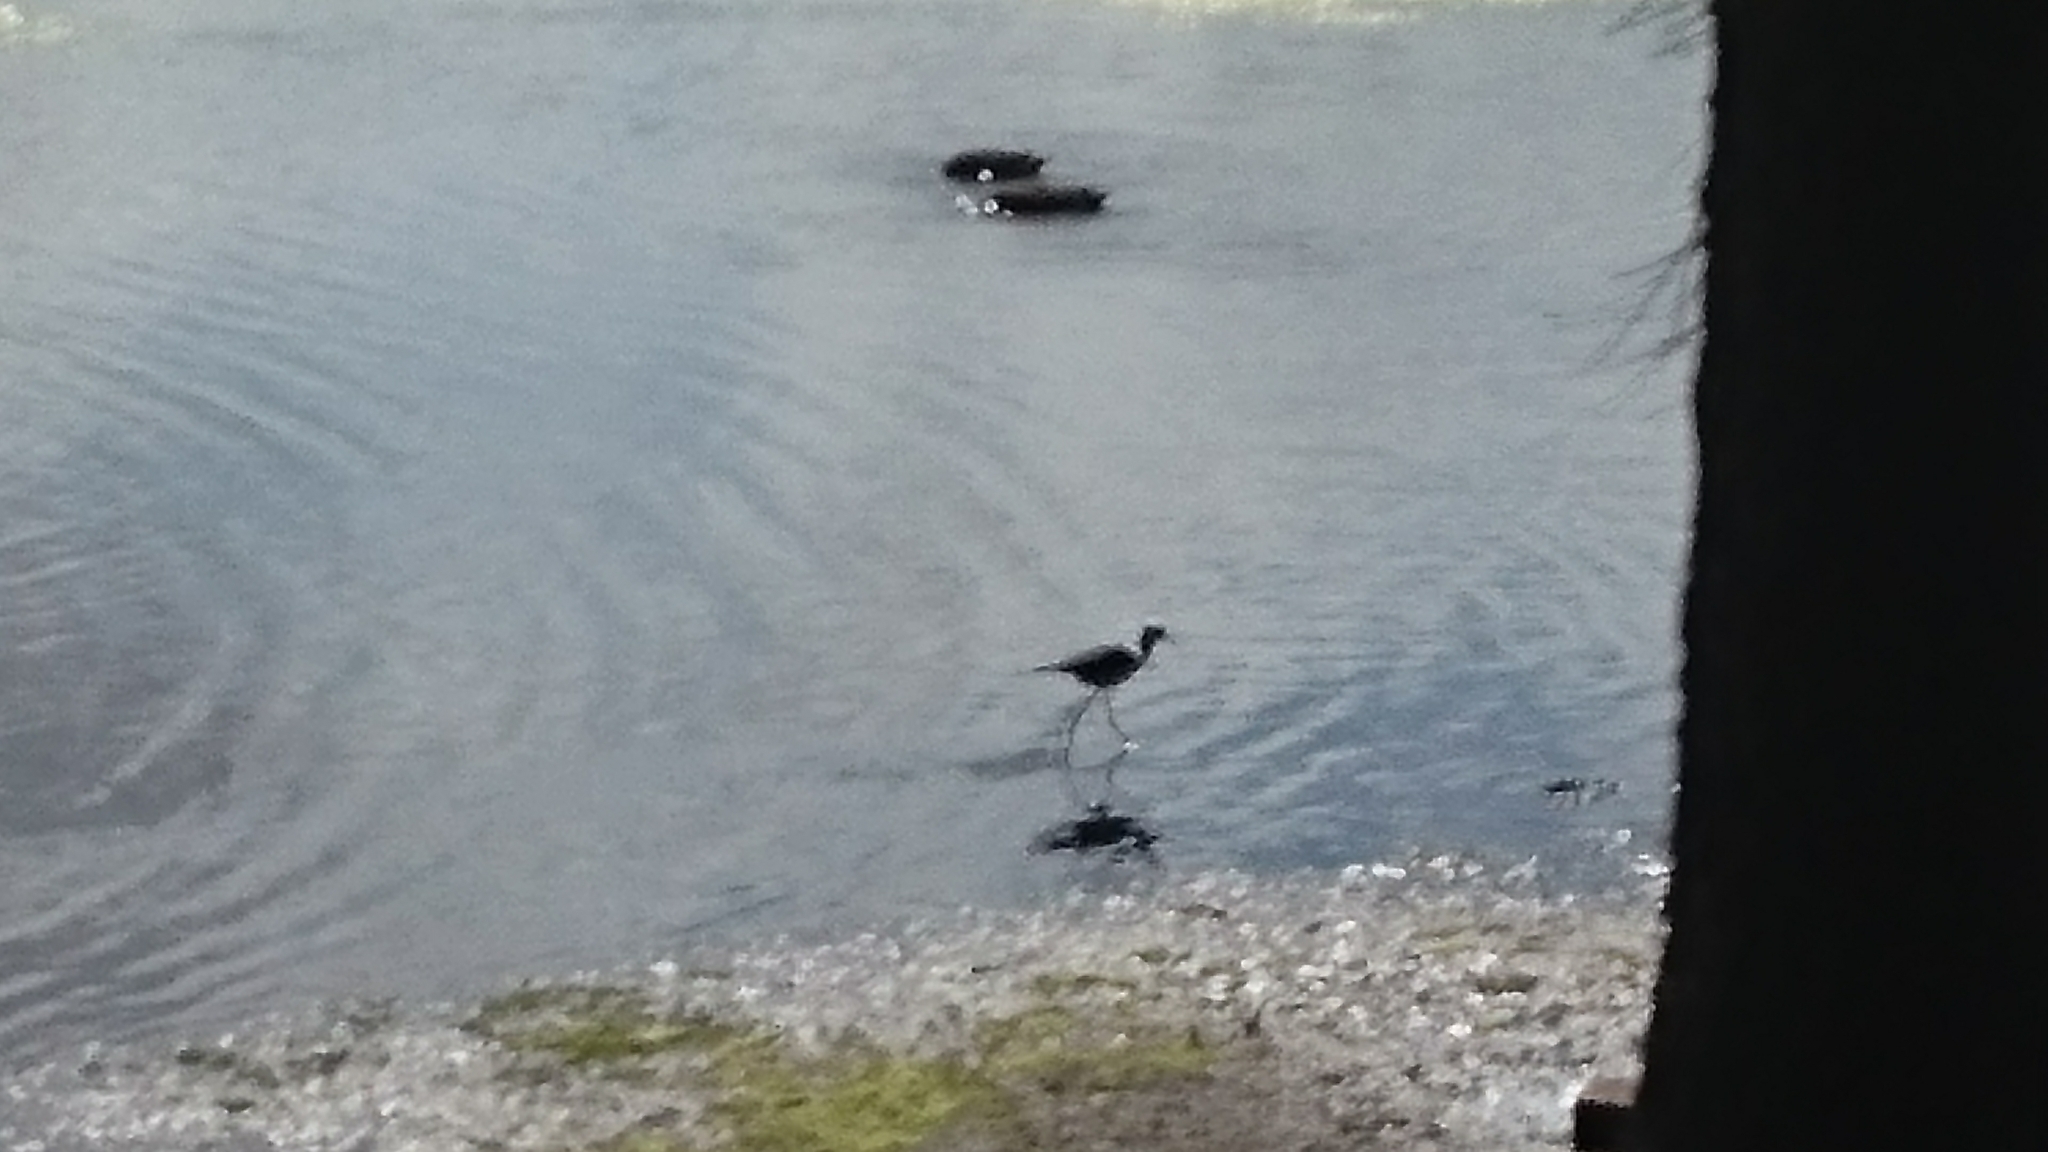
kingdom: Animalia
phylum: Chordata
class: Aves
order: Charadriiformes
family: Recurvirostridae
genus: Himantopus
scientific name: Himantopus leucocephalus
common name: White-headed stilt
